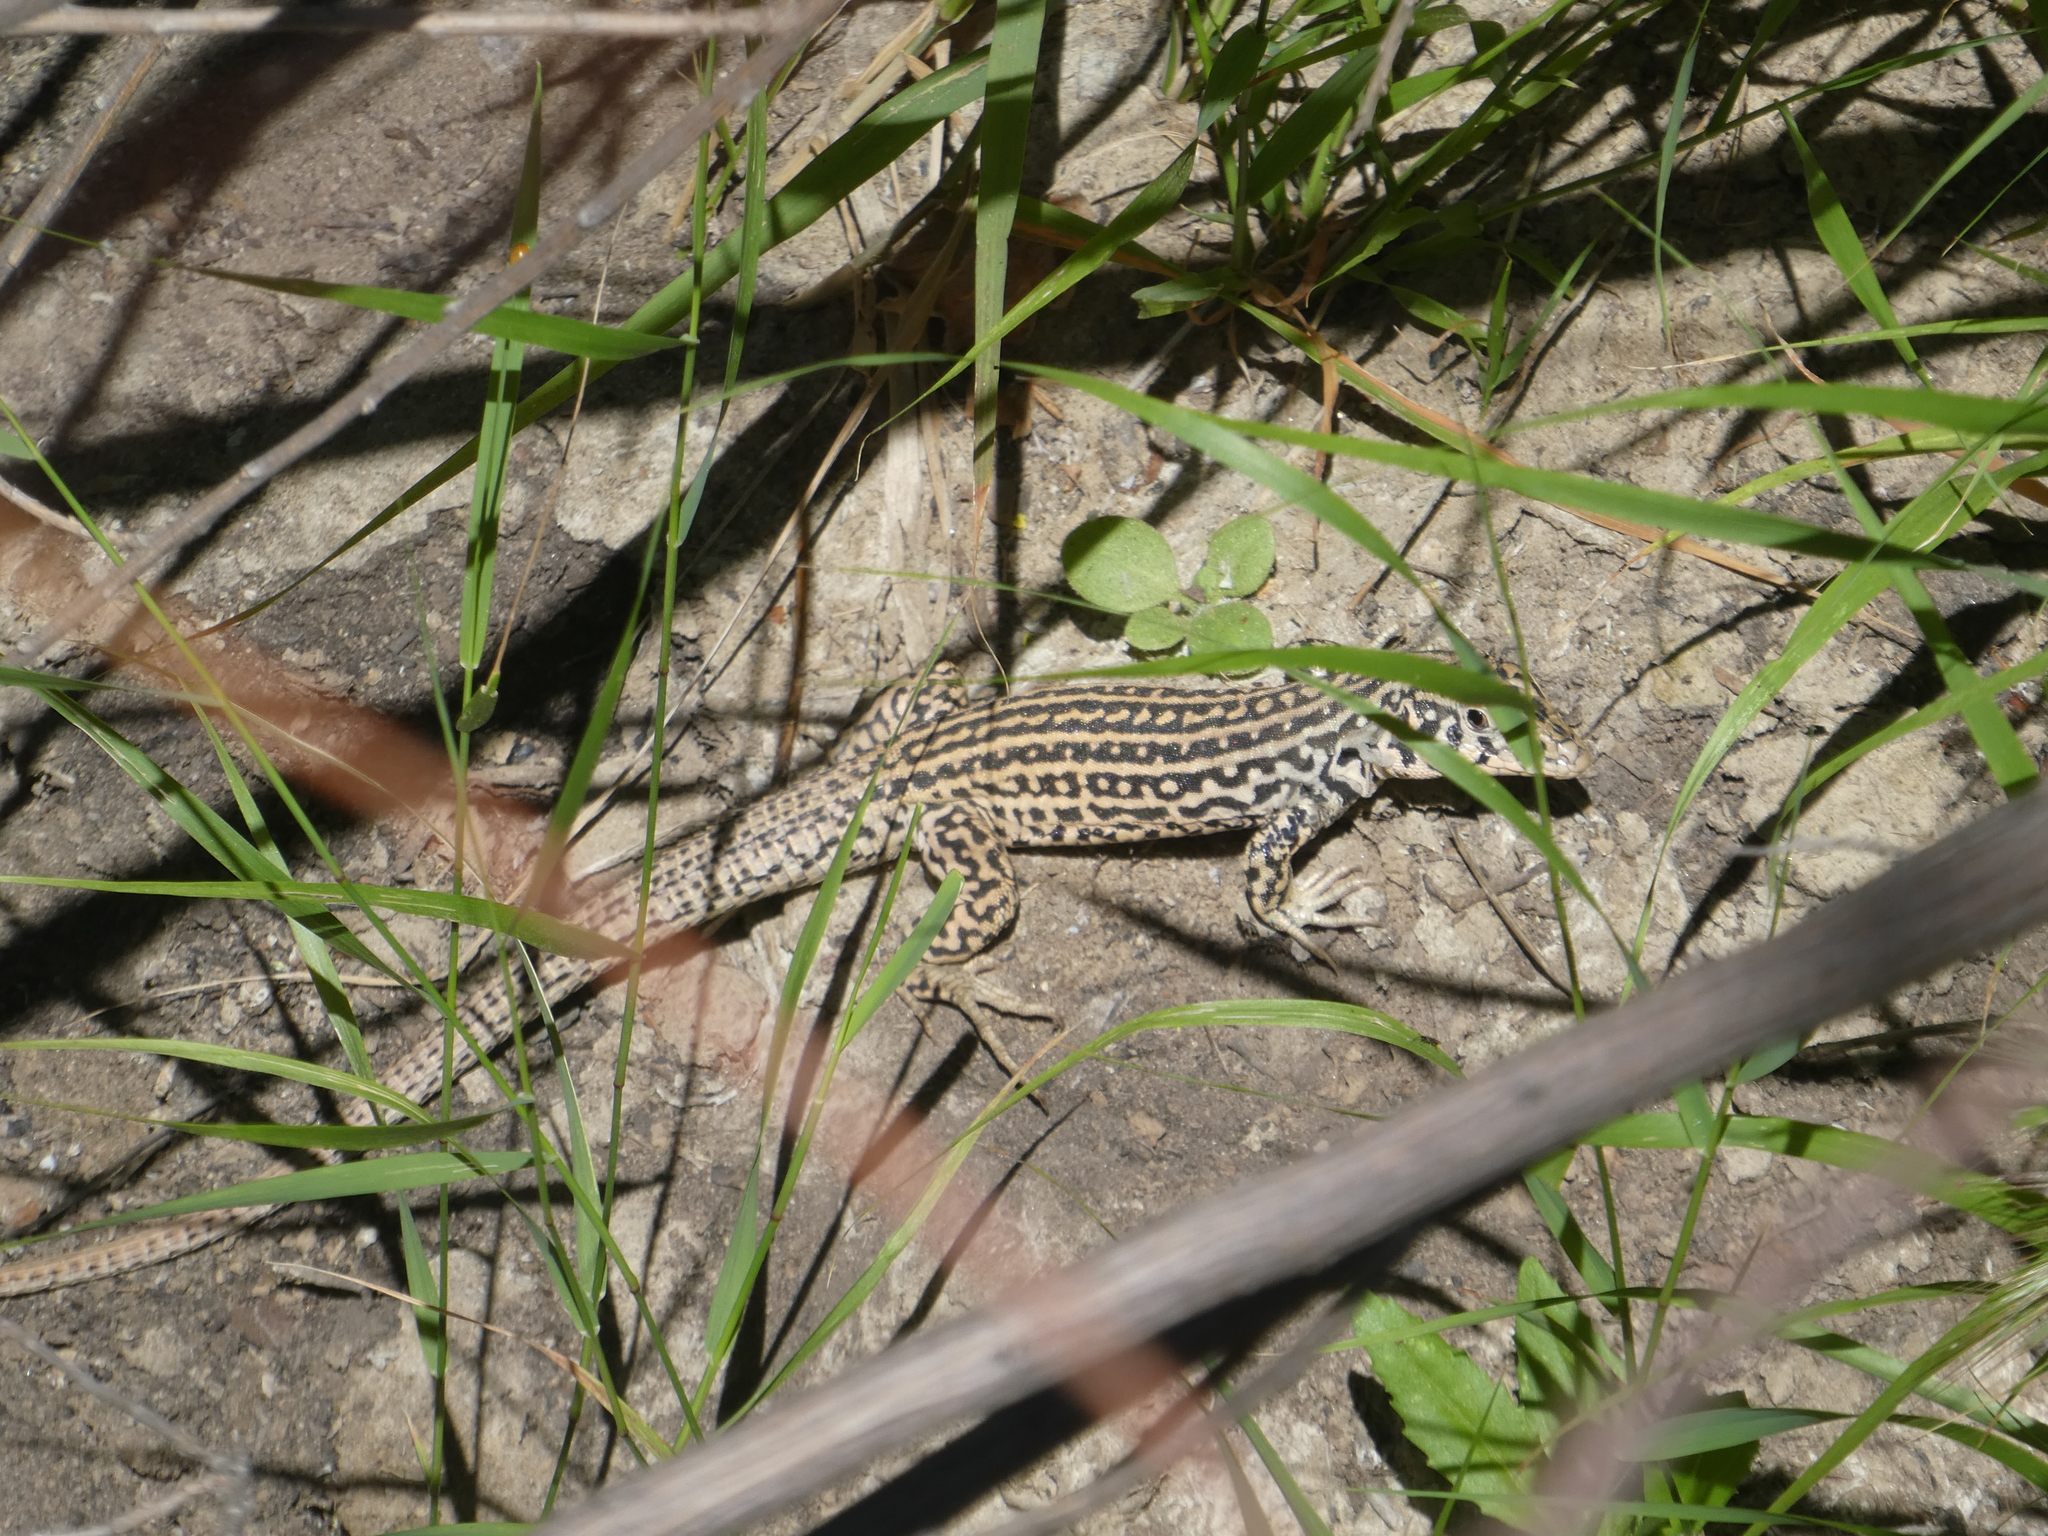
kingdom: Animalia
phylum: Chordata
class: Squamata
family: Teiidae
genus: Aspidoscelis
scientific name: Aspidoscelis tigris
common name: Tiger whiptail
